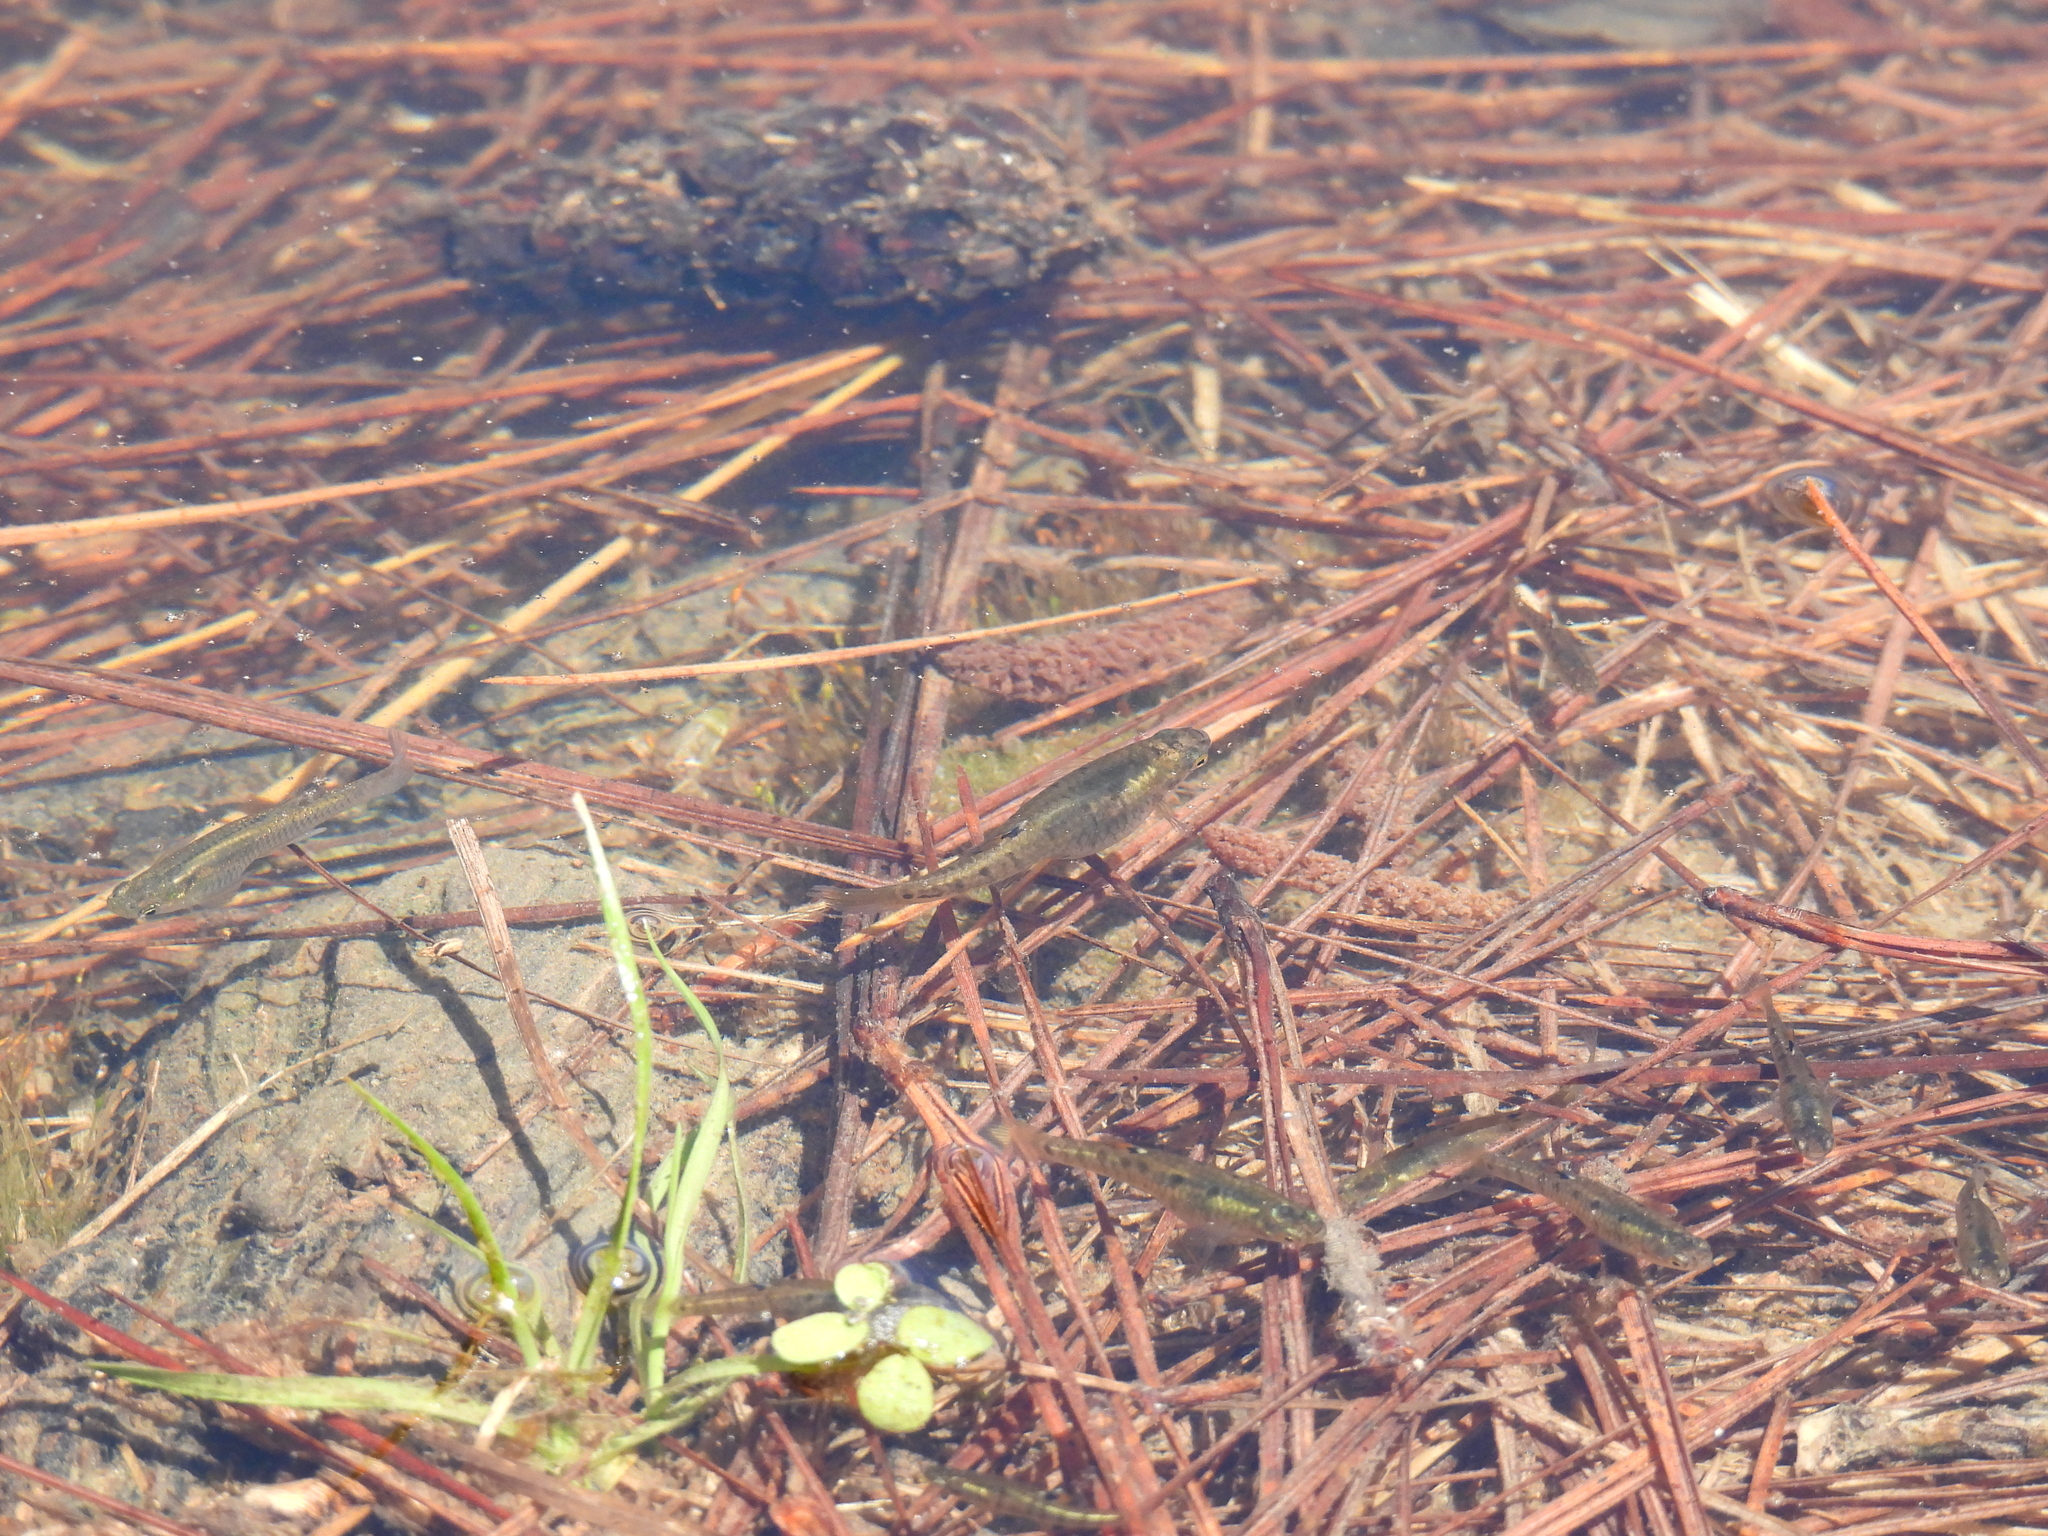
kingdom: Animalia
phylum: Chordata
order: Cyprinodontiformes
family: Poeciliidae
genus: Heterandria
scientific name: Heterandria formosa
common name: Least killifish
